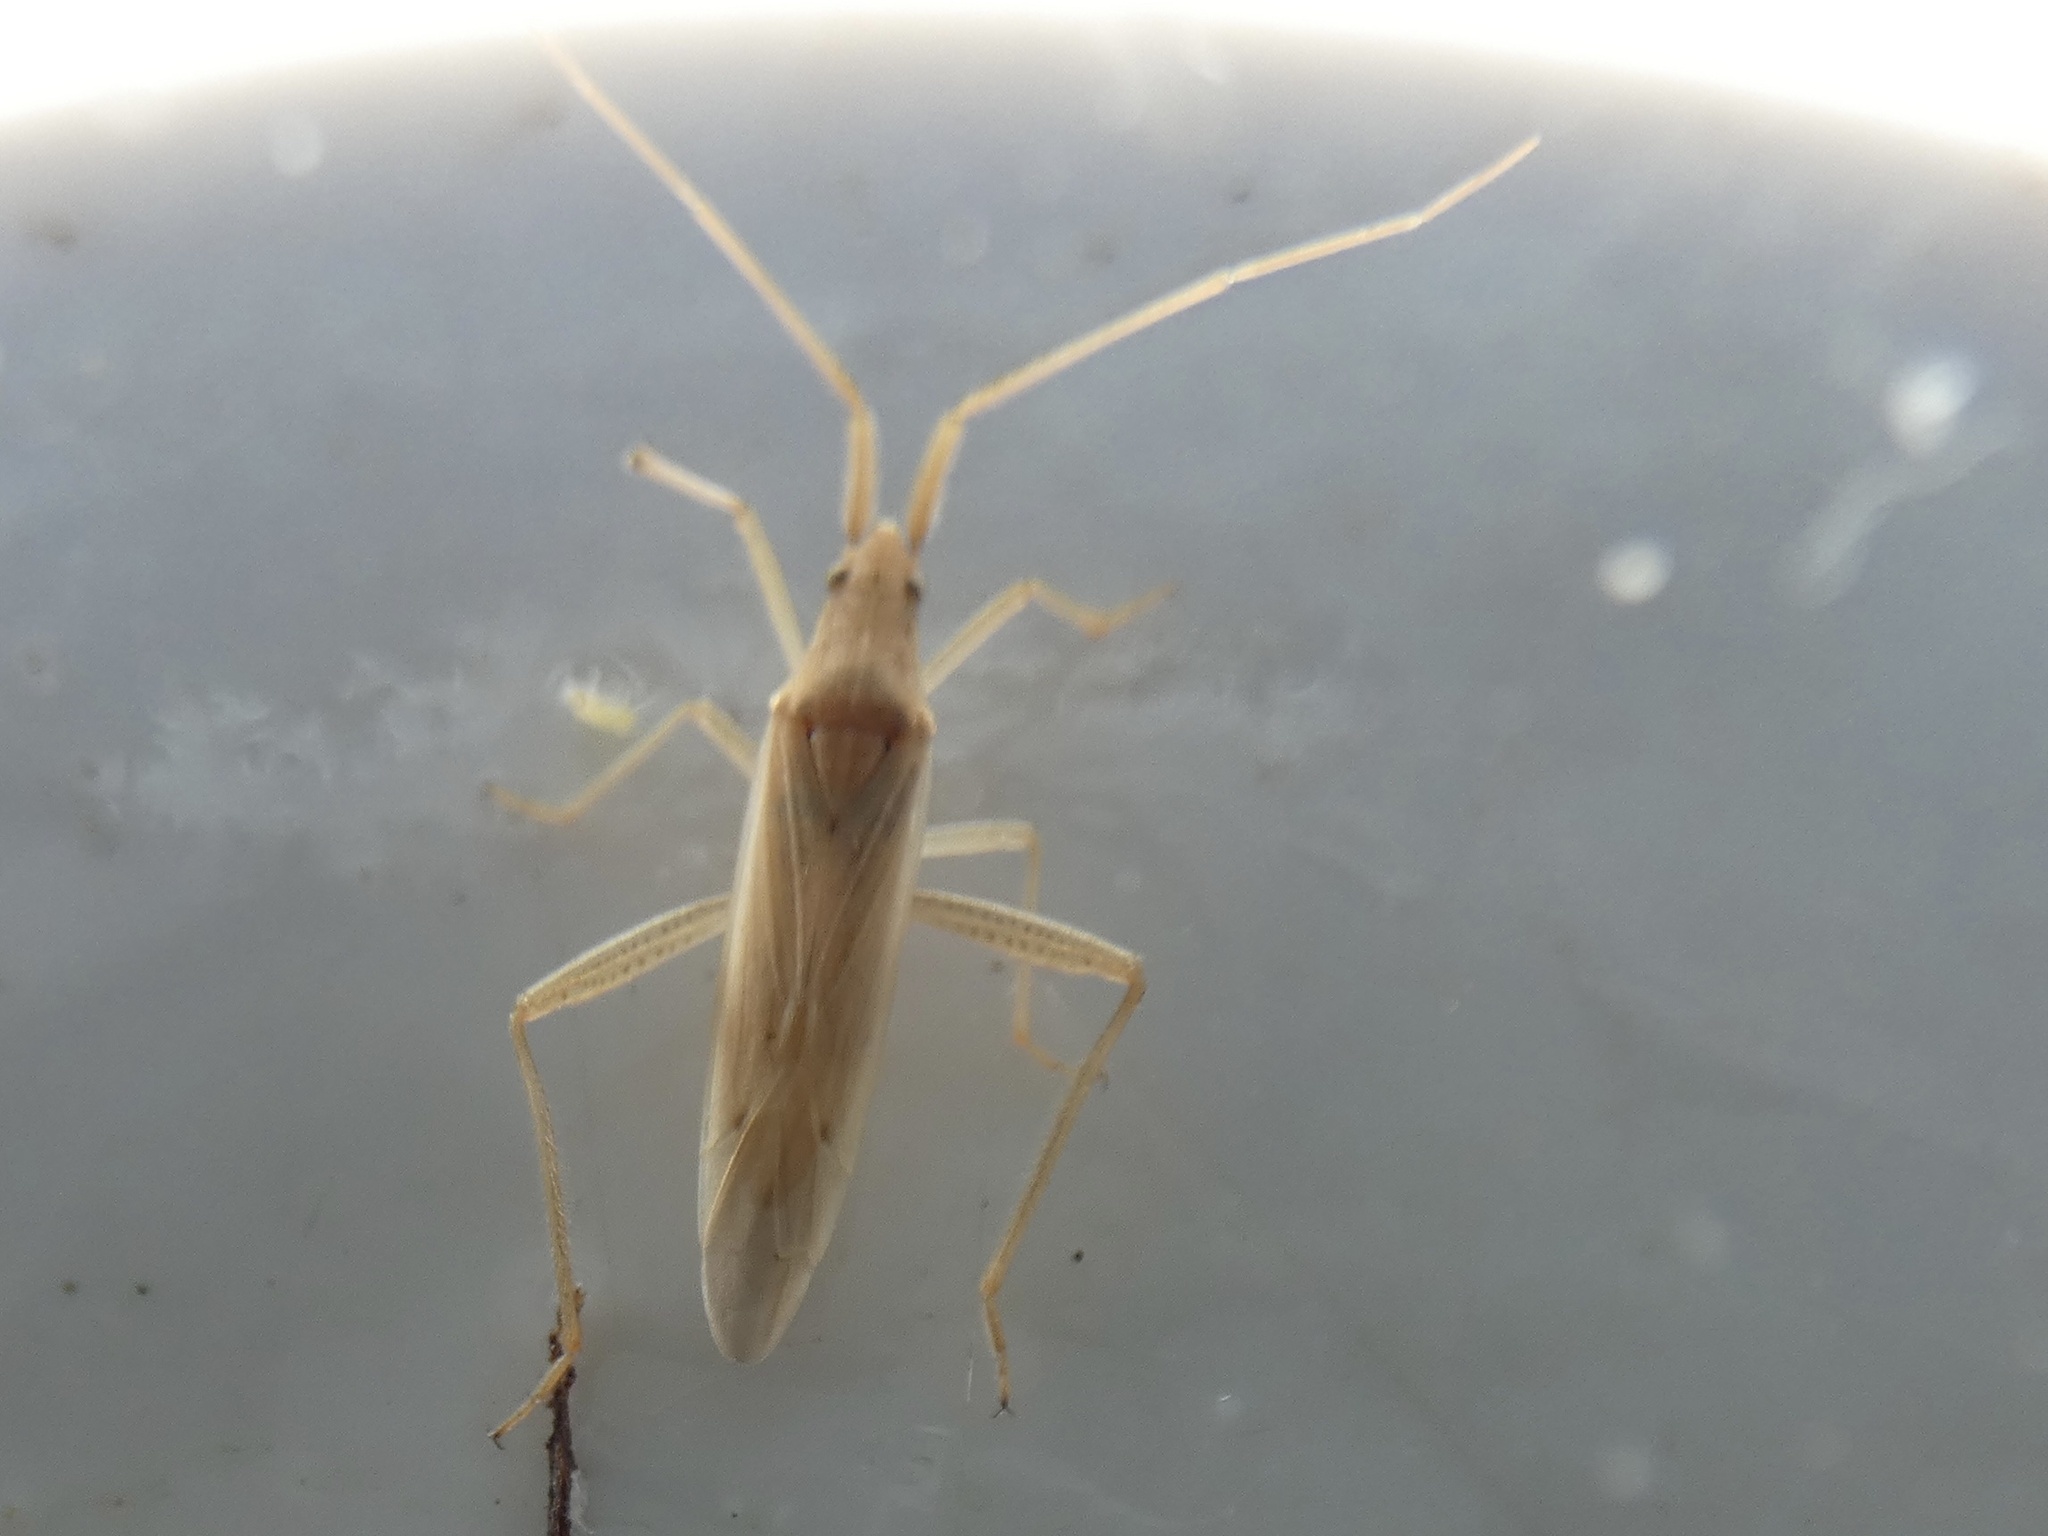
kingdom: Animalia
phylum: Arthropoda
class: Insecta
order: Hemiptera
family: Miridae
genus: Stenodema
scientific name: Stenodema laevigata
